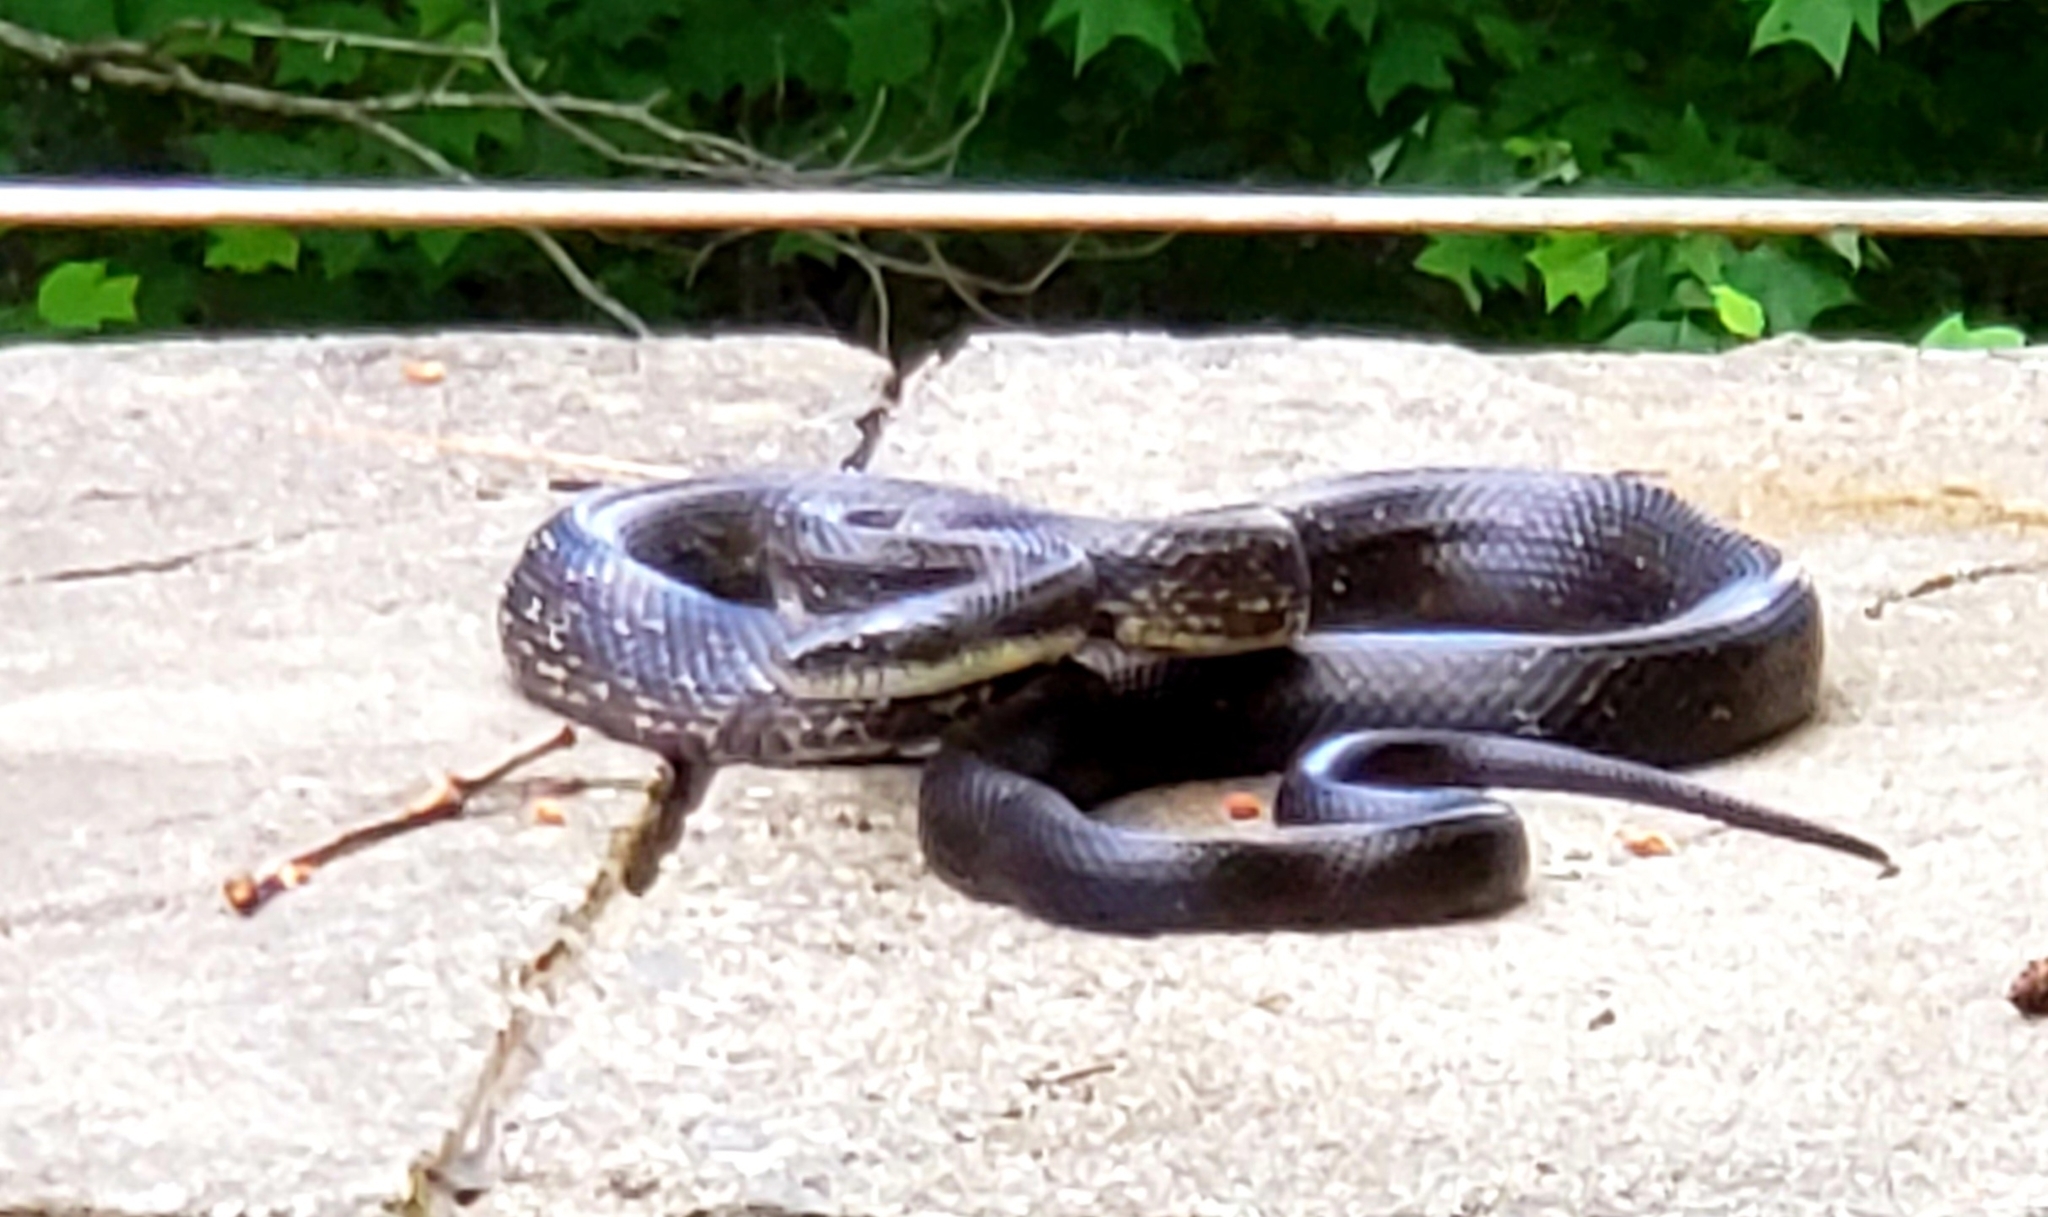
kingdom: Animalia
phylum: Chordata
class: Squamata
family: Colubridae
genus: Pantherophis
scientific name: Pantherophis alleghaniensis
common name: Eastern rat snake
